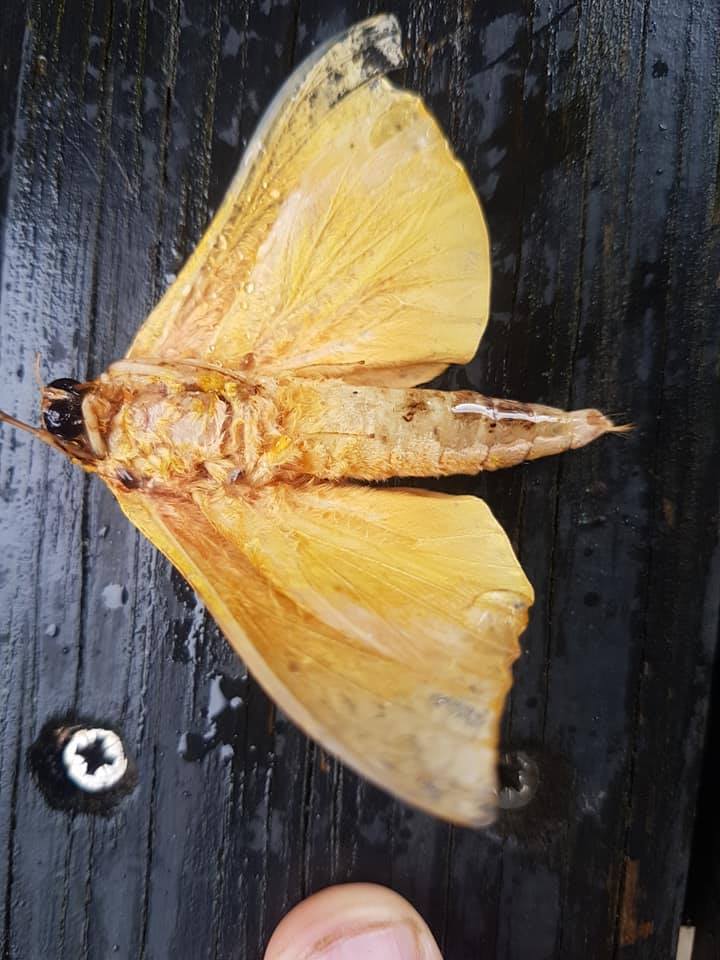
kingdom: Animalia
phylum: Arthropoda
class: Insecta
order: Lepidoptera
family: Hepialidae
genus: Aenetus
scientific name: Aenetus virescens
